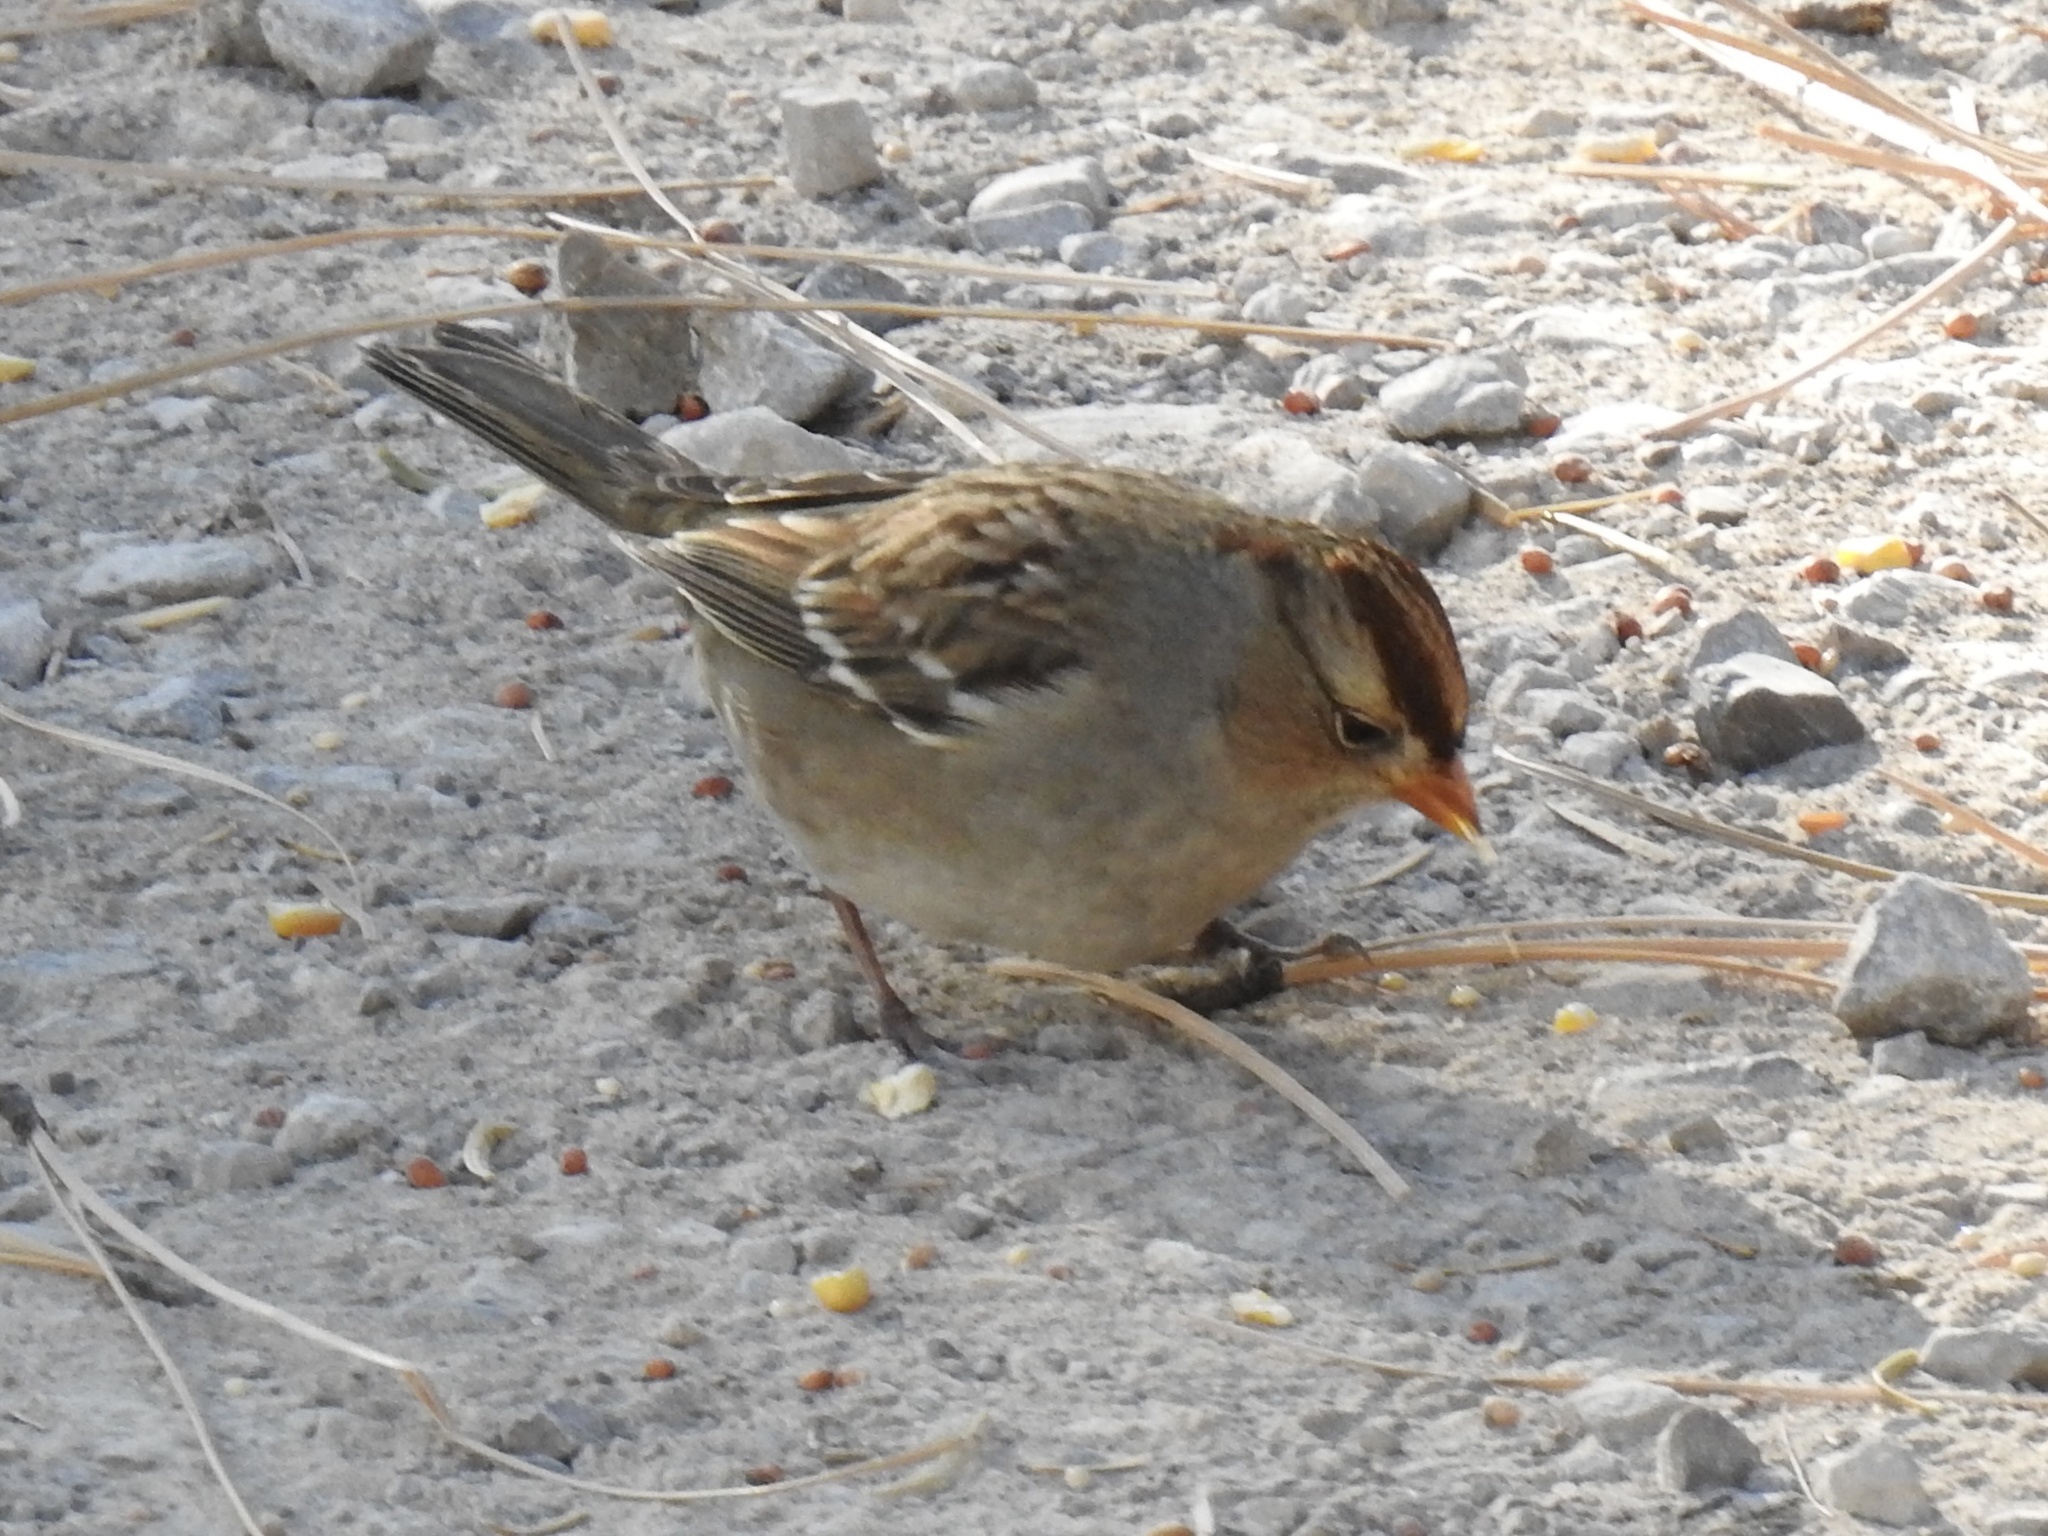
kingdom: Animalia
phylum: Chordata
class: Aves
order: Passeriformes
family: Passerellidae
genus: Zonotrichia
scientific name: Zonotrichia leucophrys
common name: White-crowned sparrow
